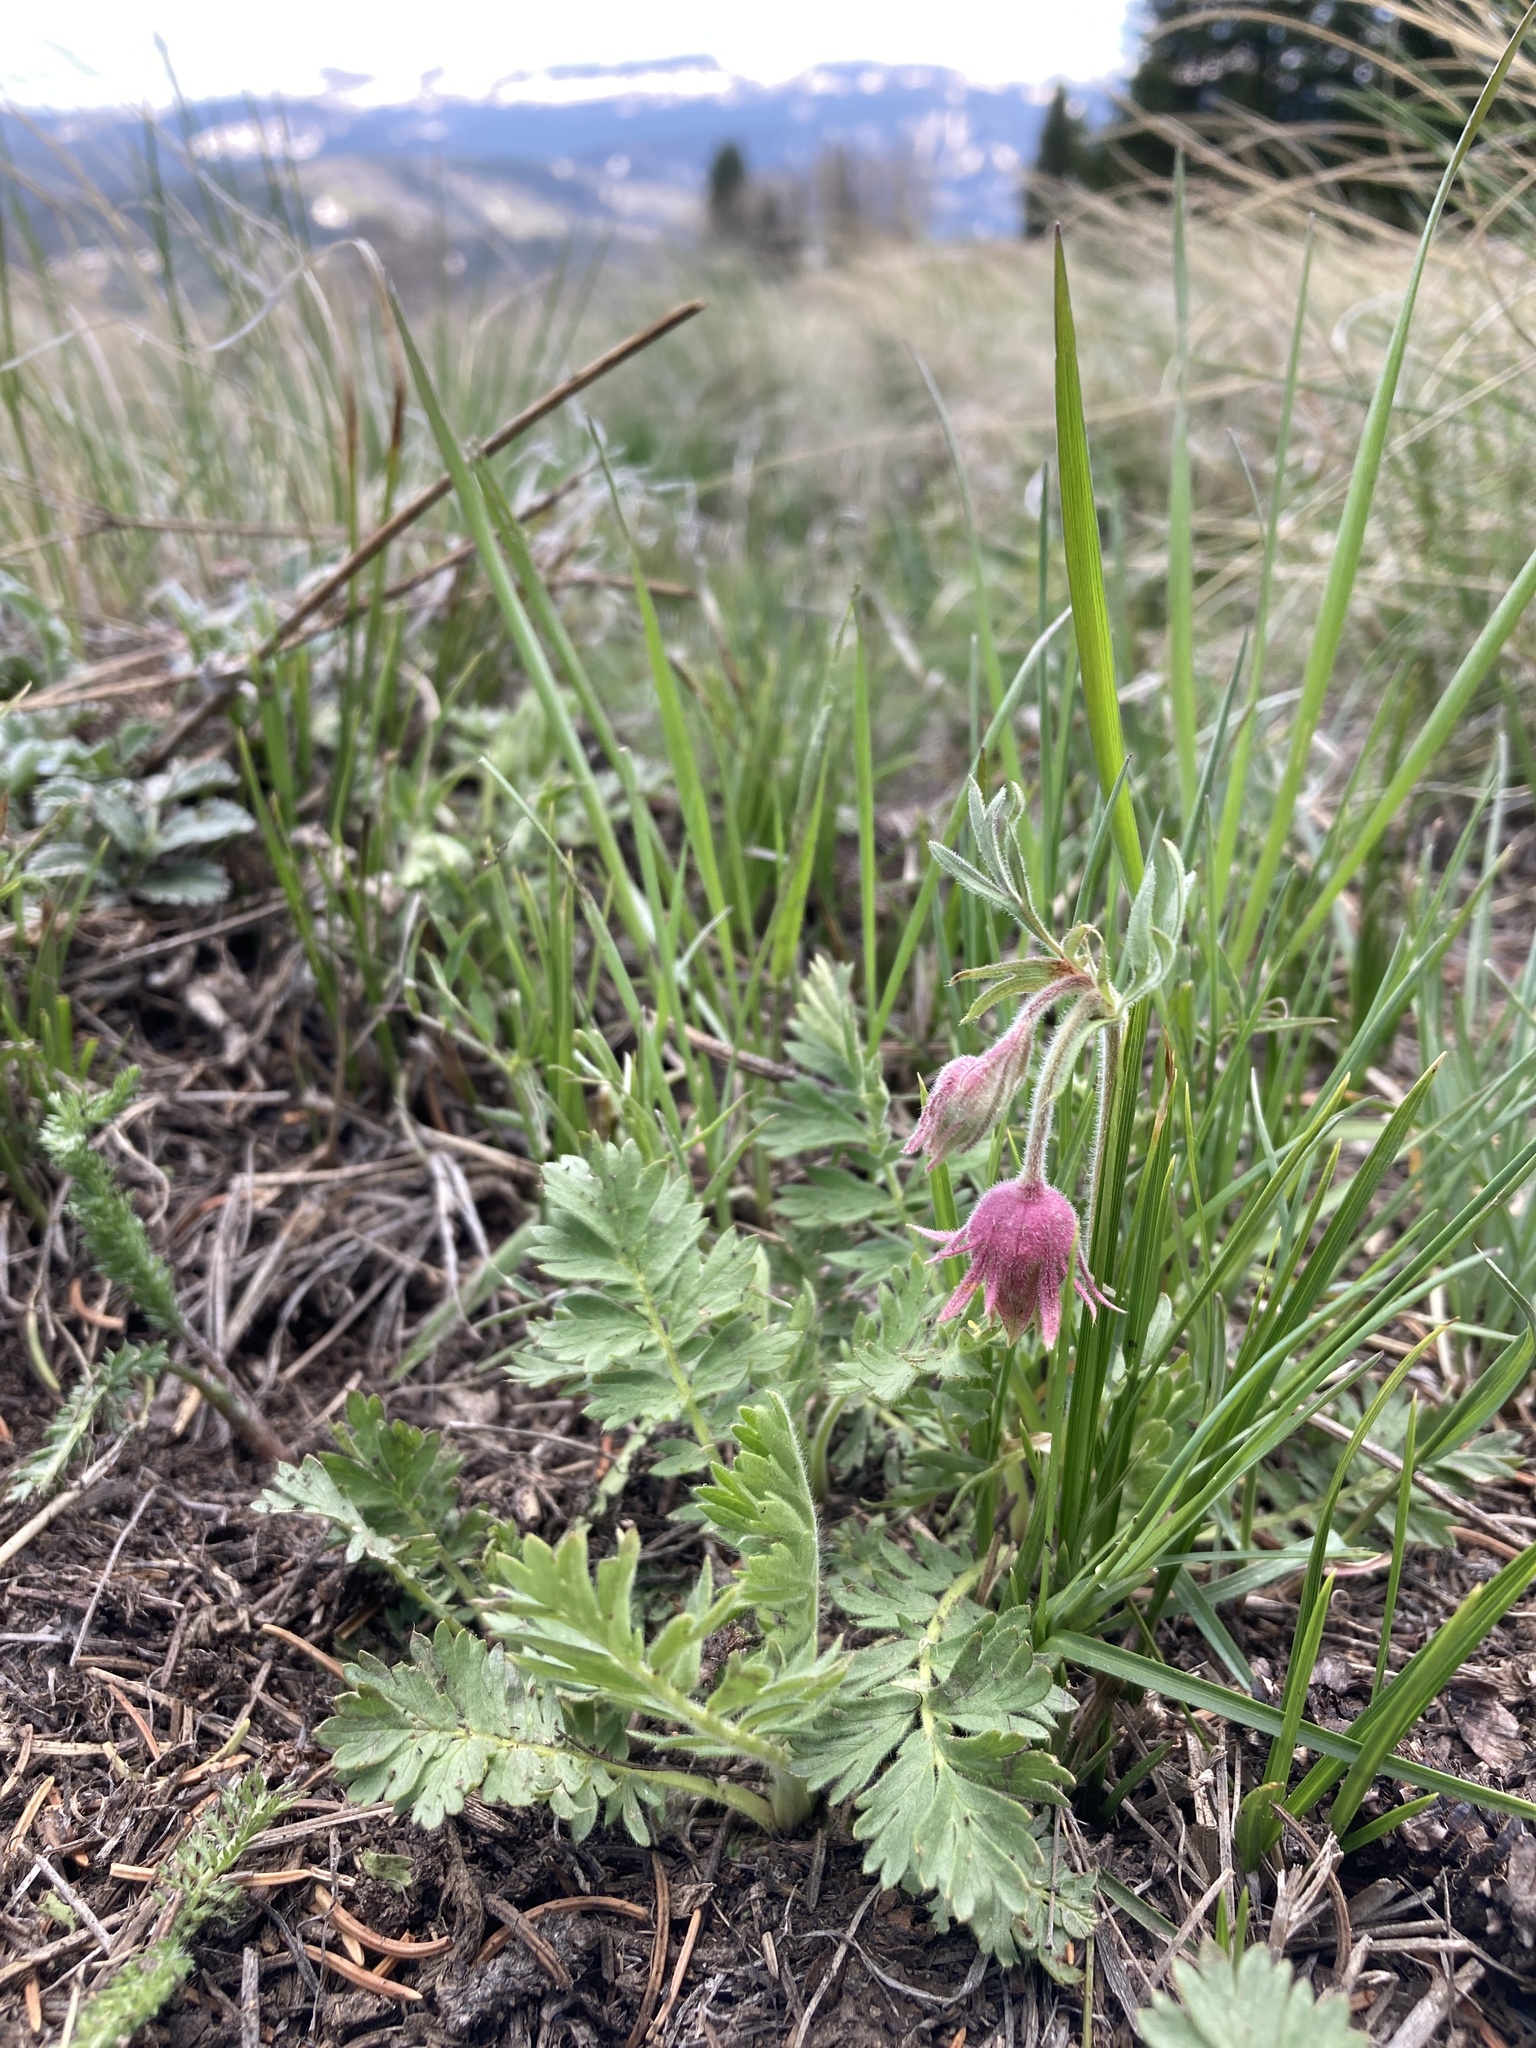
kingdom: Plantae
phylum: Tracheophyta
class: Magnoliopsida
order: Rosales
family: Rosaceae
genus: Geum
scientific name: Geum triflorum
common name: Old man's whiskers
